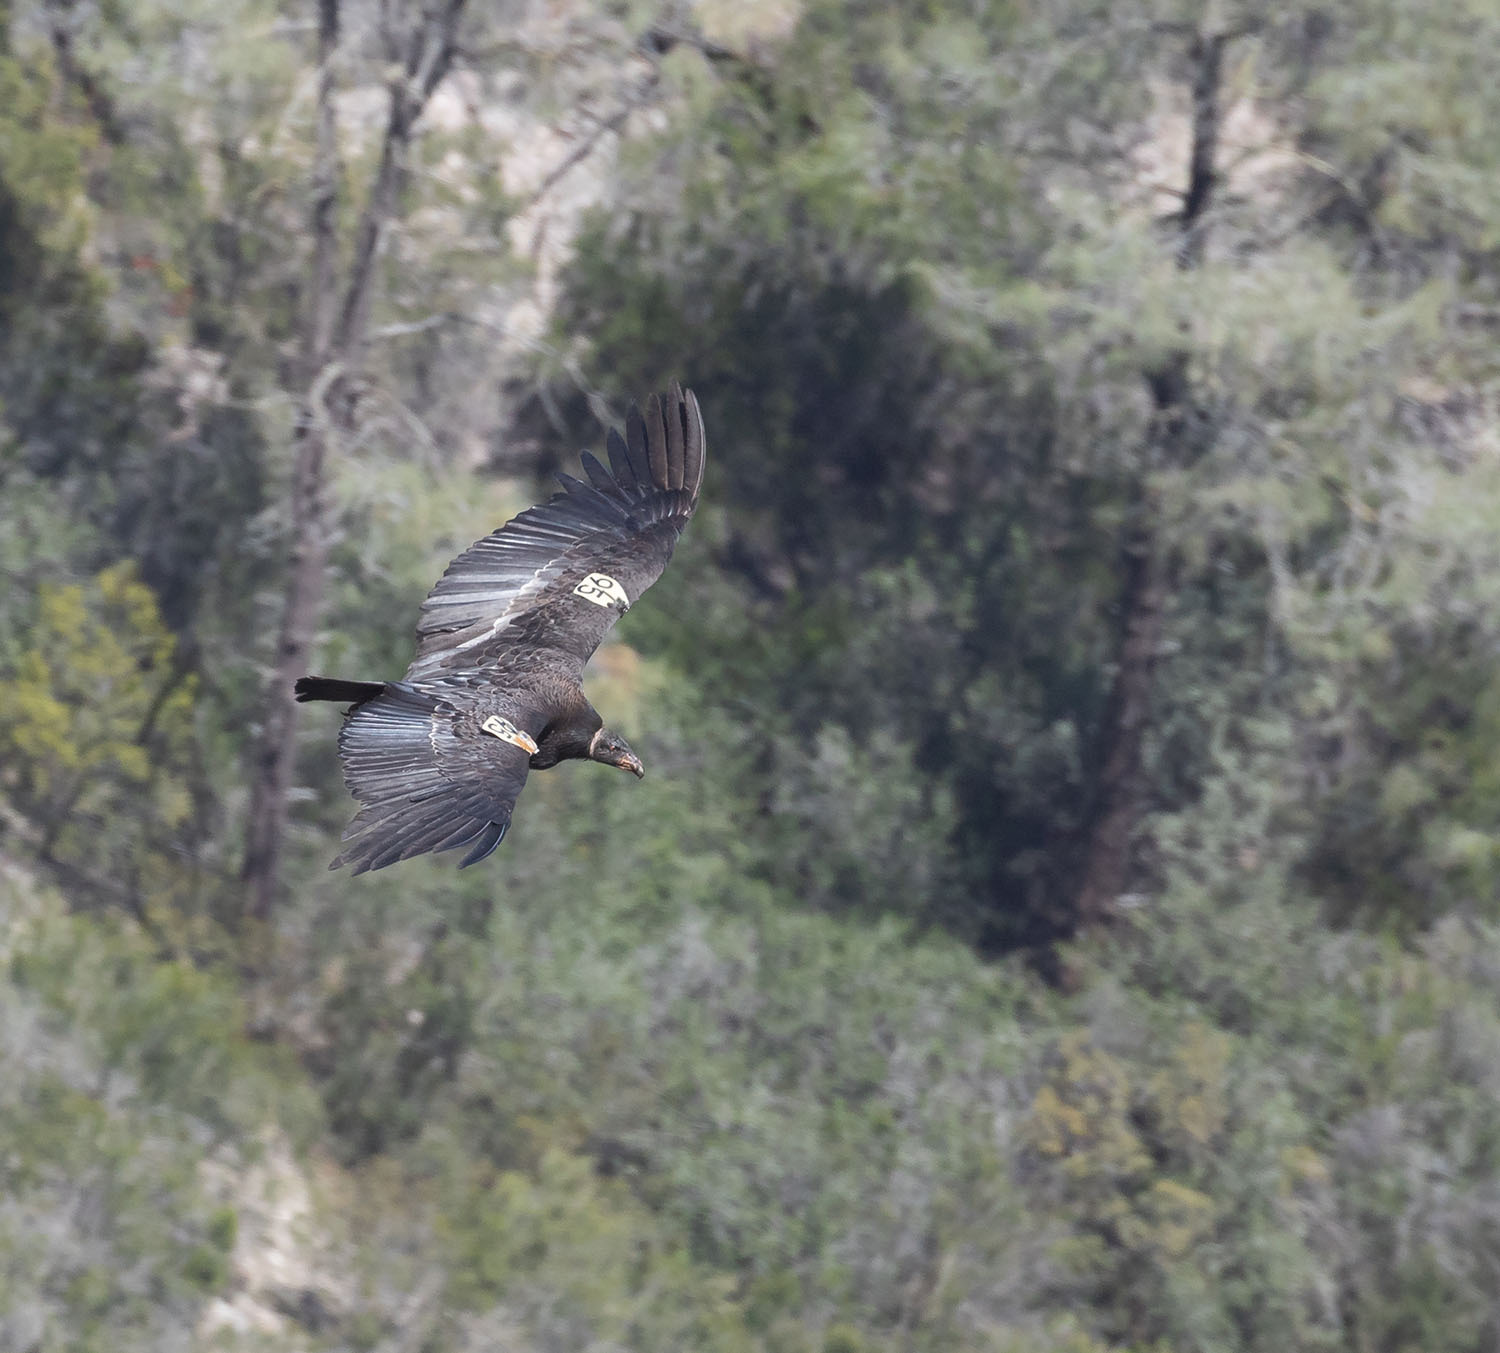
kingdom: Animalia
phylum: Chordata
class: Aves
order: Accipitriformes
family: Cathartidae
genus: Gymnogyps
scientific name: Gymnogyps californianus
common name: California condor
